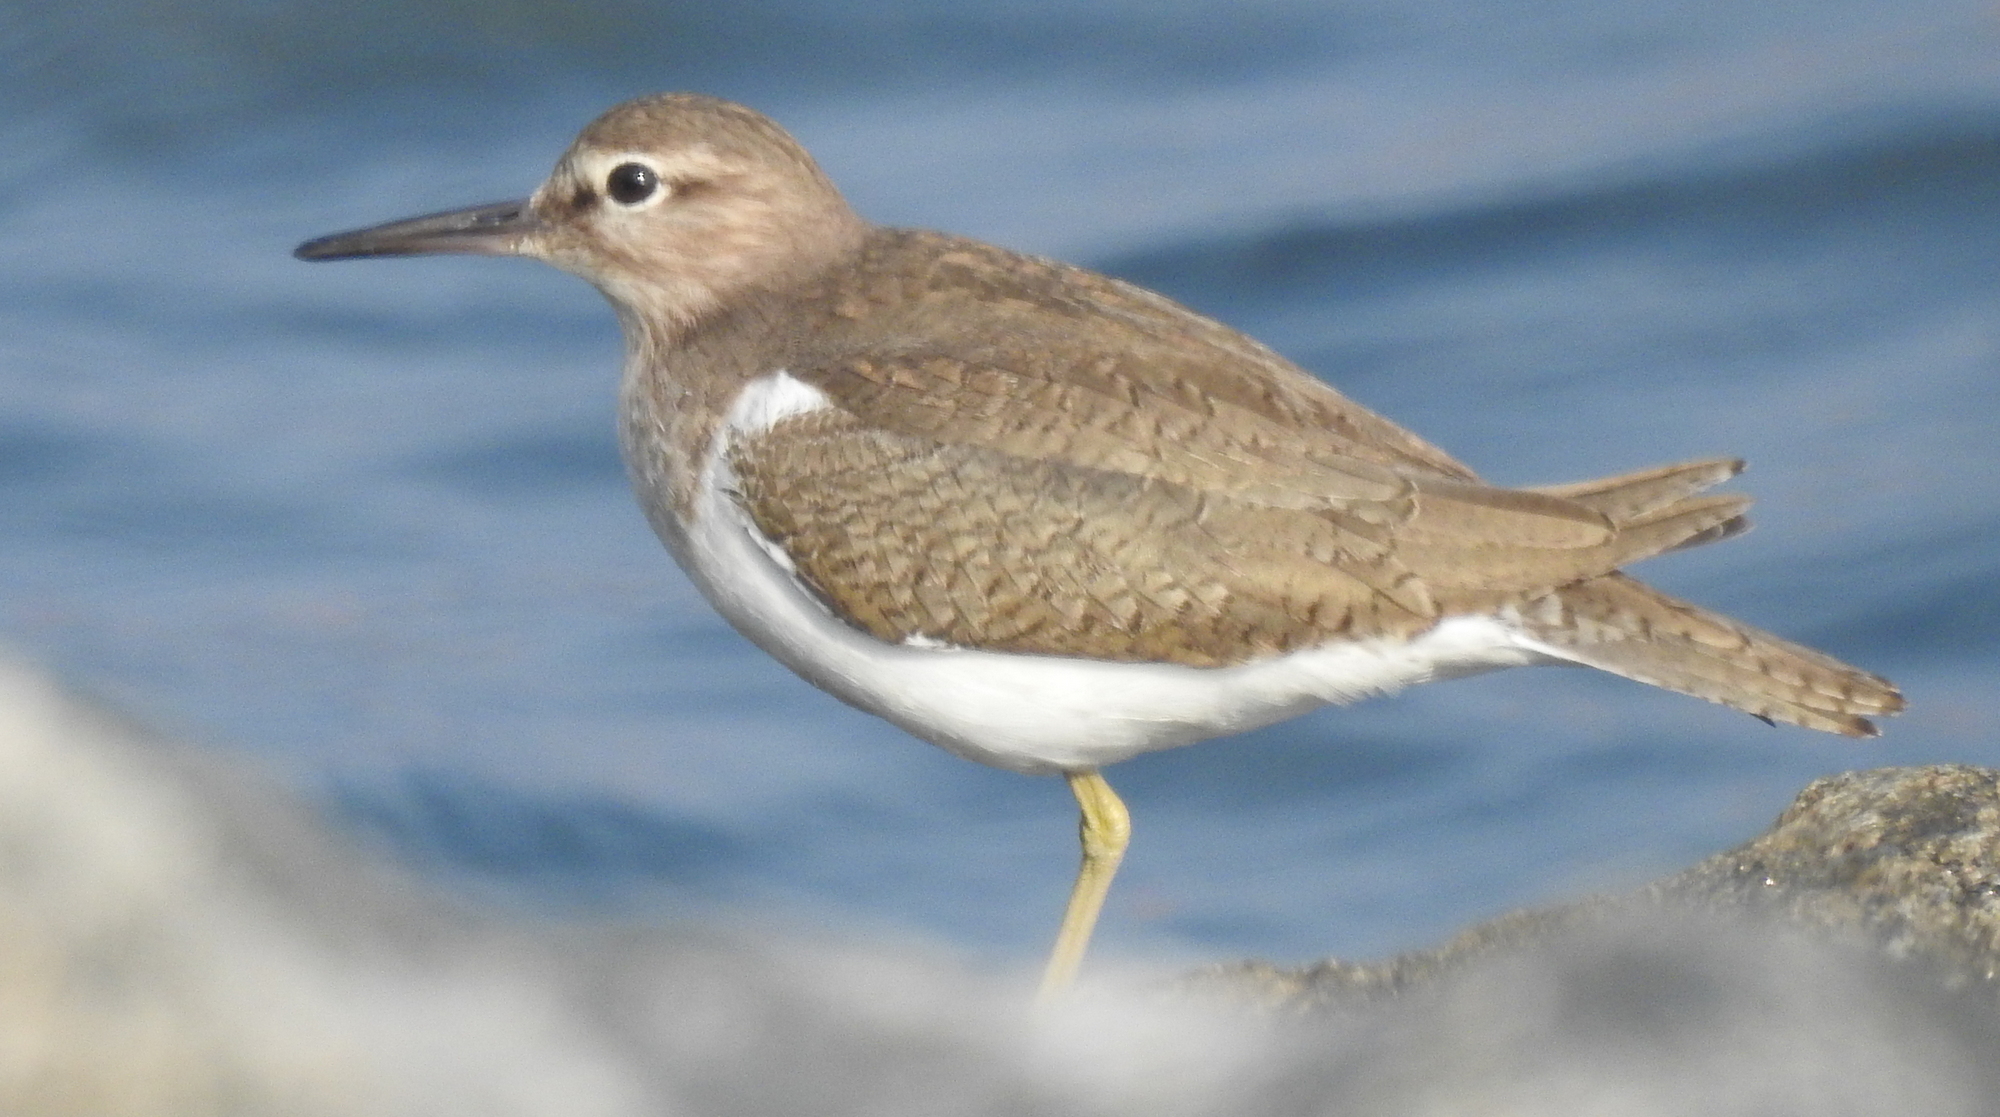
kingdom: Animalia
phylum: Chordata
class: Aves
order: Charadriiformes
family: Scolopacidae
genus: Actitis
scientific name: Actitis hypoleucos
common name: Common sandpiper
